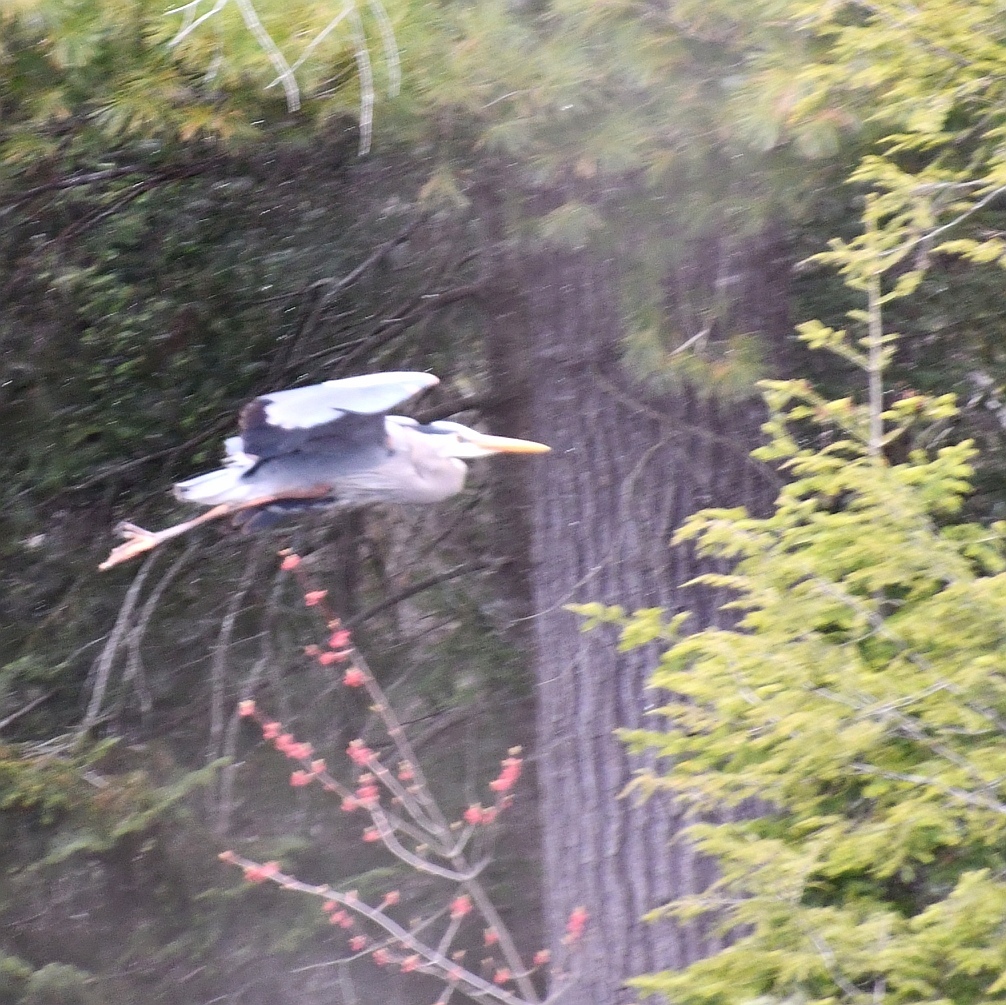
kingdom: Animalia
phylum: Chordata
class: Aves
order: Pelecaniformes
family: Ardeidae
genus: Ardea
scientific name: Ardea herodias
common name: Great blue heron
